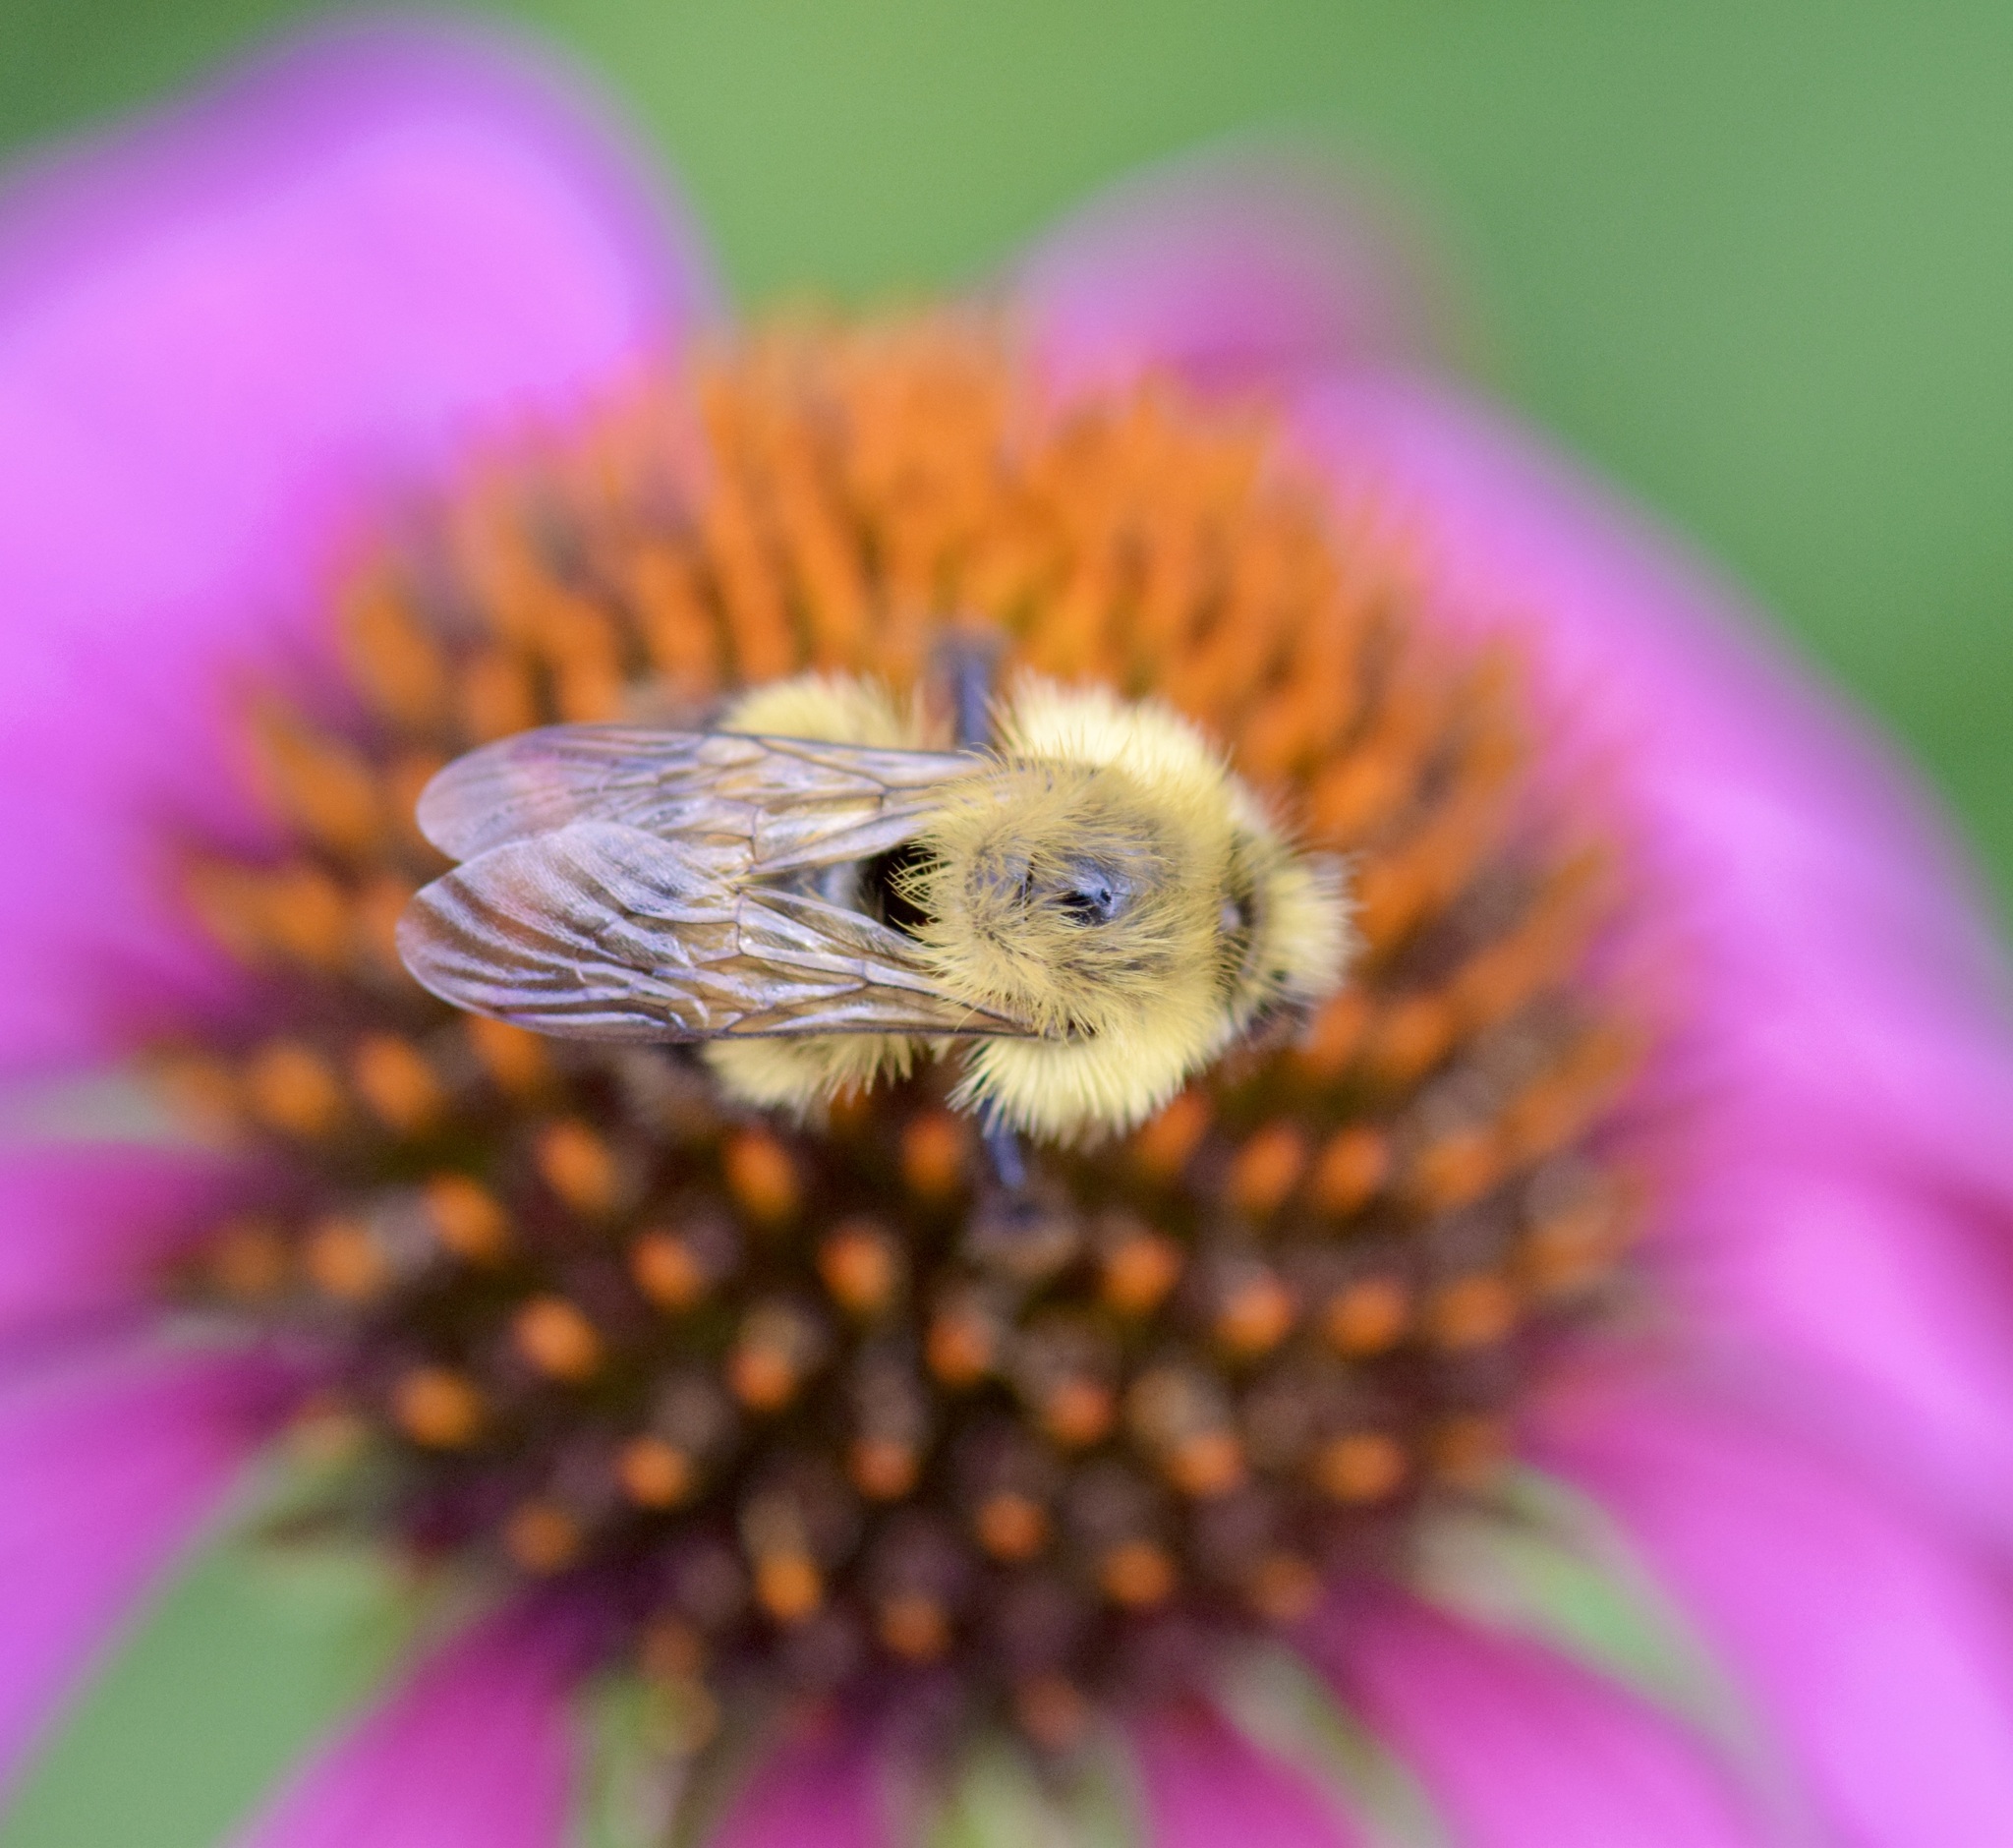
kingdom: Animalia
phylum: Arthropoda
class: Insecta
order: Hymenoptera
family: Apidae
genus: Pyrobombus
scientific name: Pyrobombus
